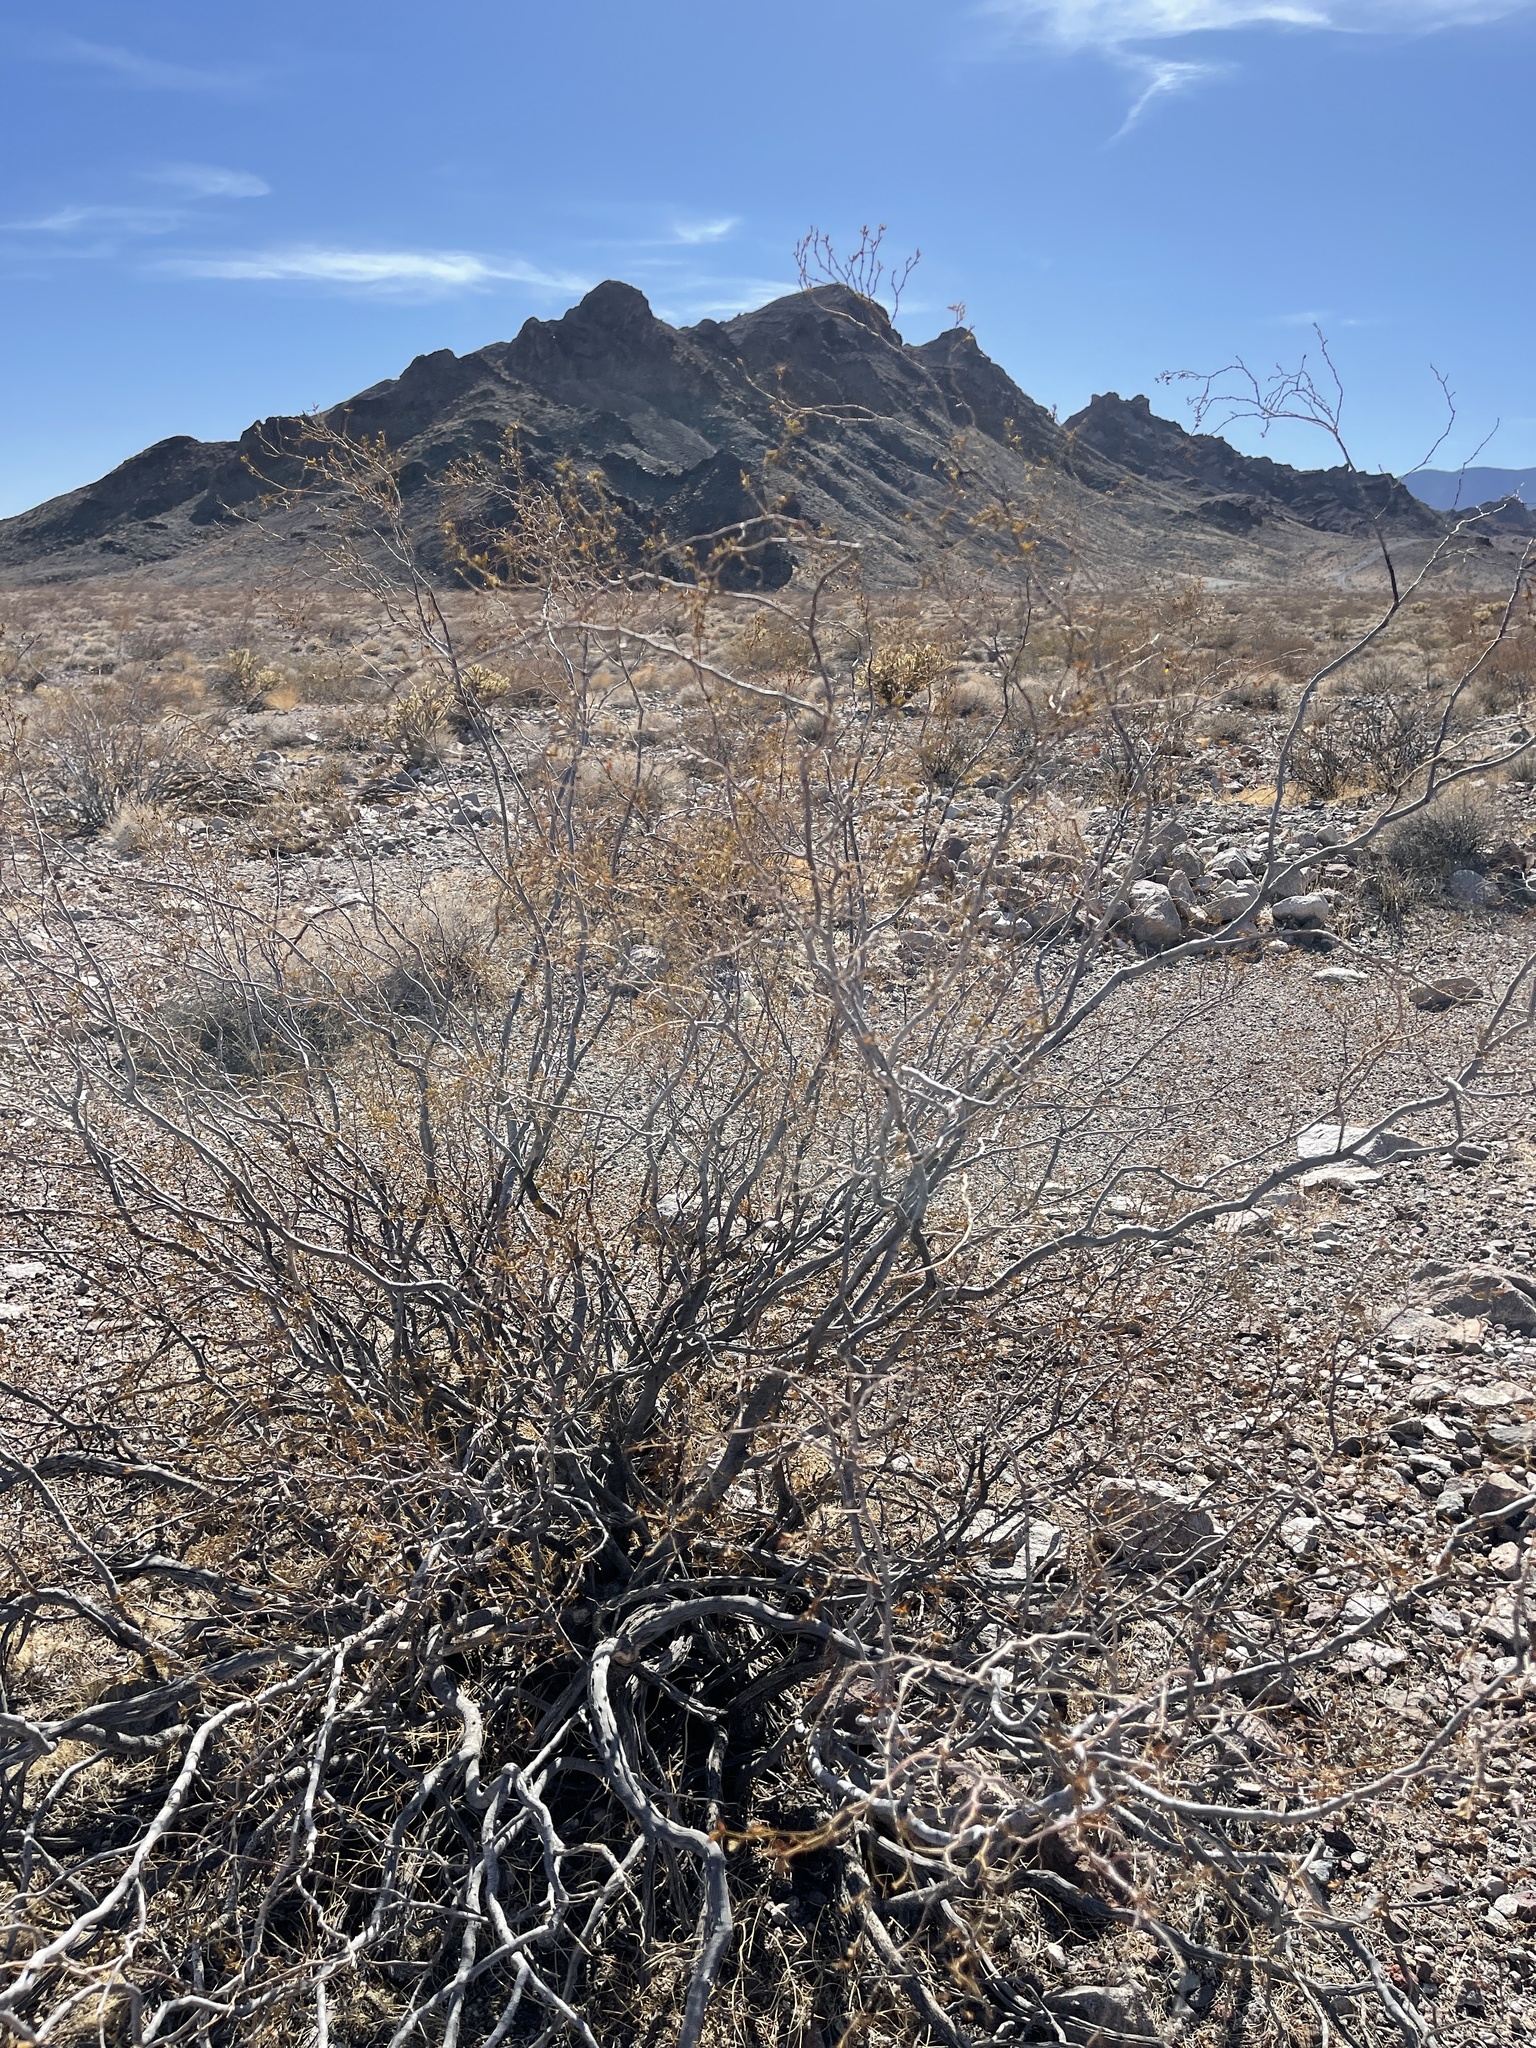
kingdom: Plantae
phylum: Tracheophyta
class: Magnoliopsida
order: Zygophyllales
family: Zygophyllaceae
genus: Larrea
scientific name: Larrea tridentata
